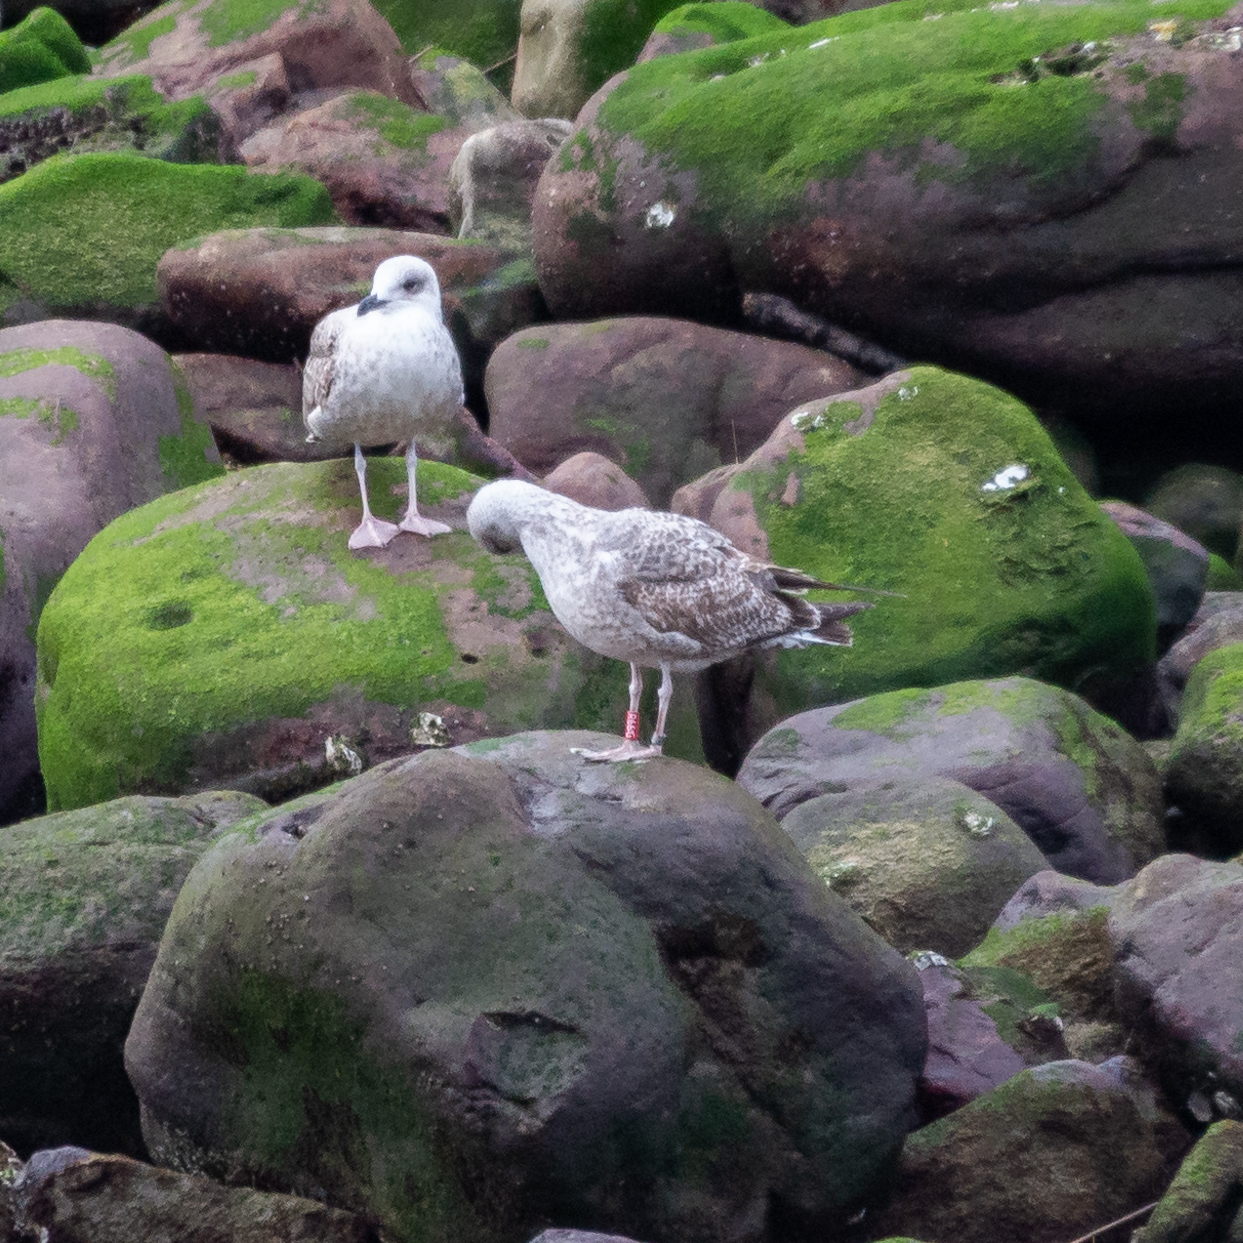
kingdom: Animalia
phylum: Chordata
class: Aves
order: Charadriiformes
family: Laridae
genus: Larus
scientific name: Larus michahellis
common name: Yellow-legged gull
